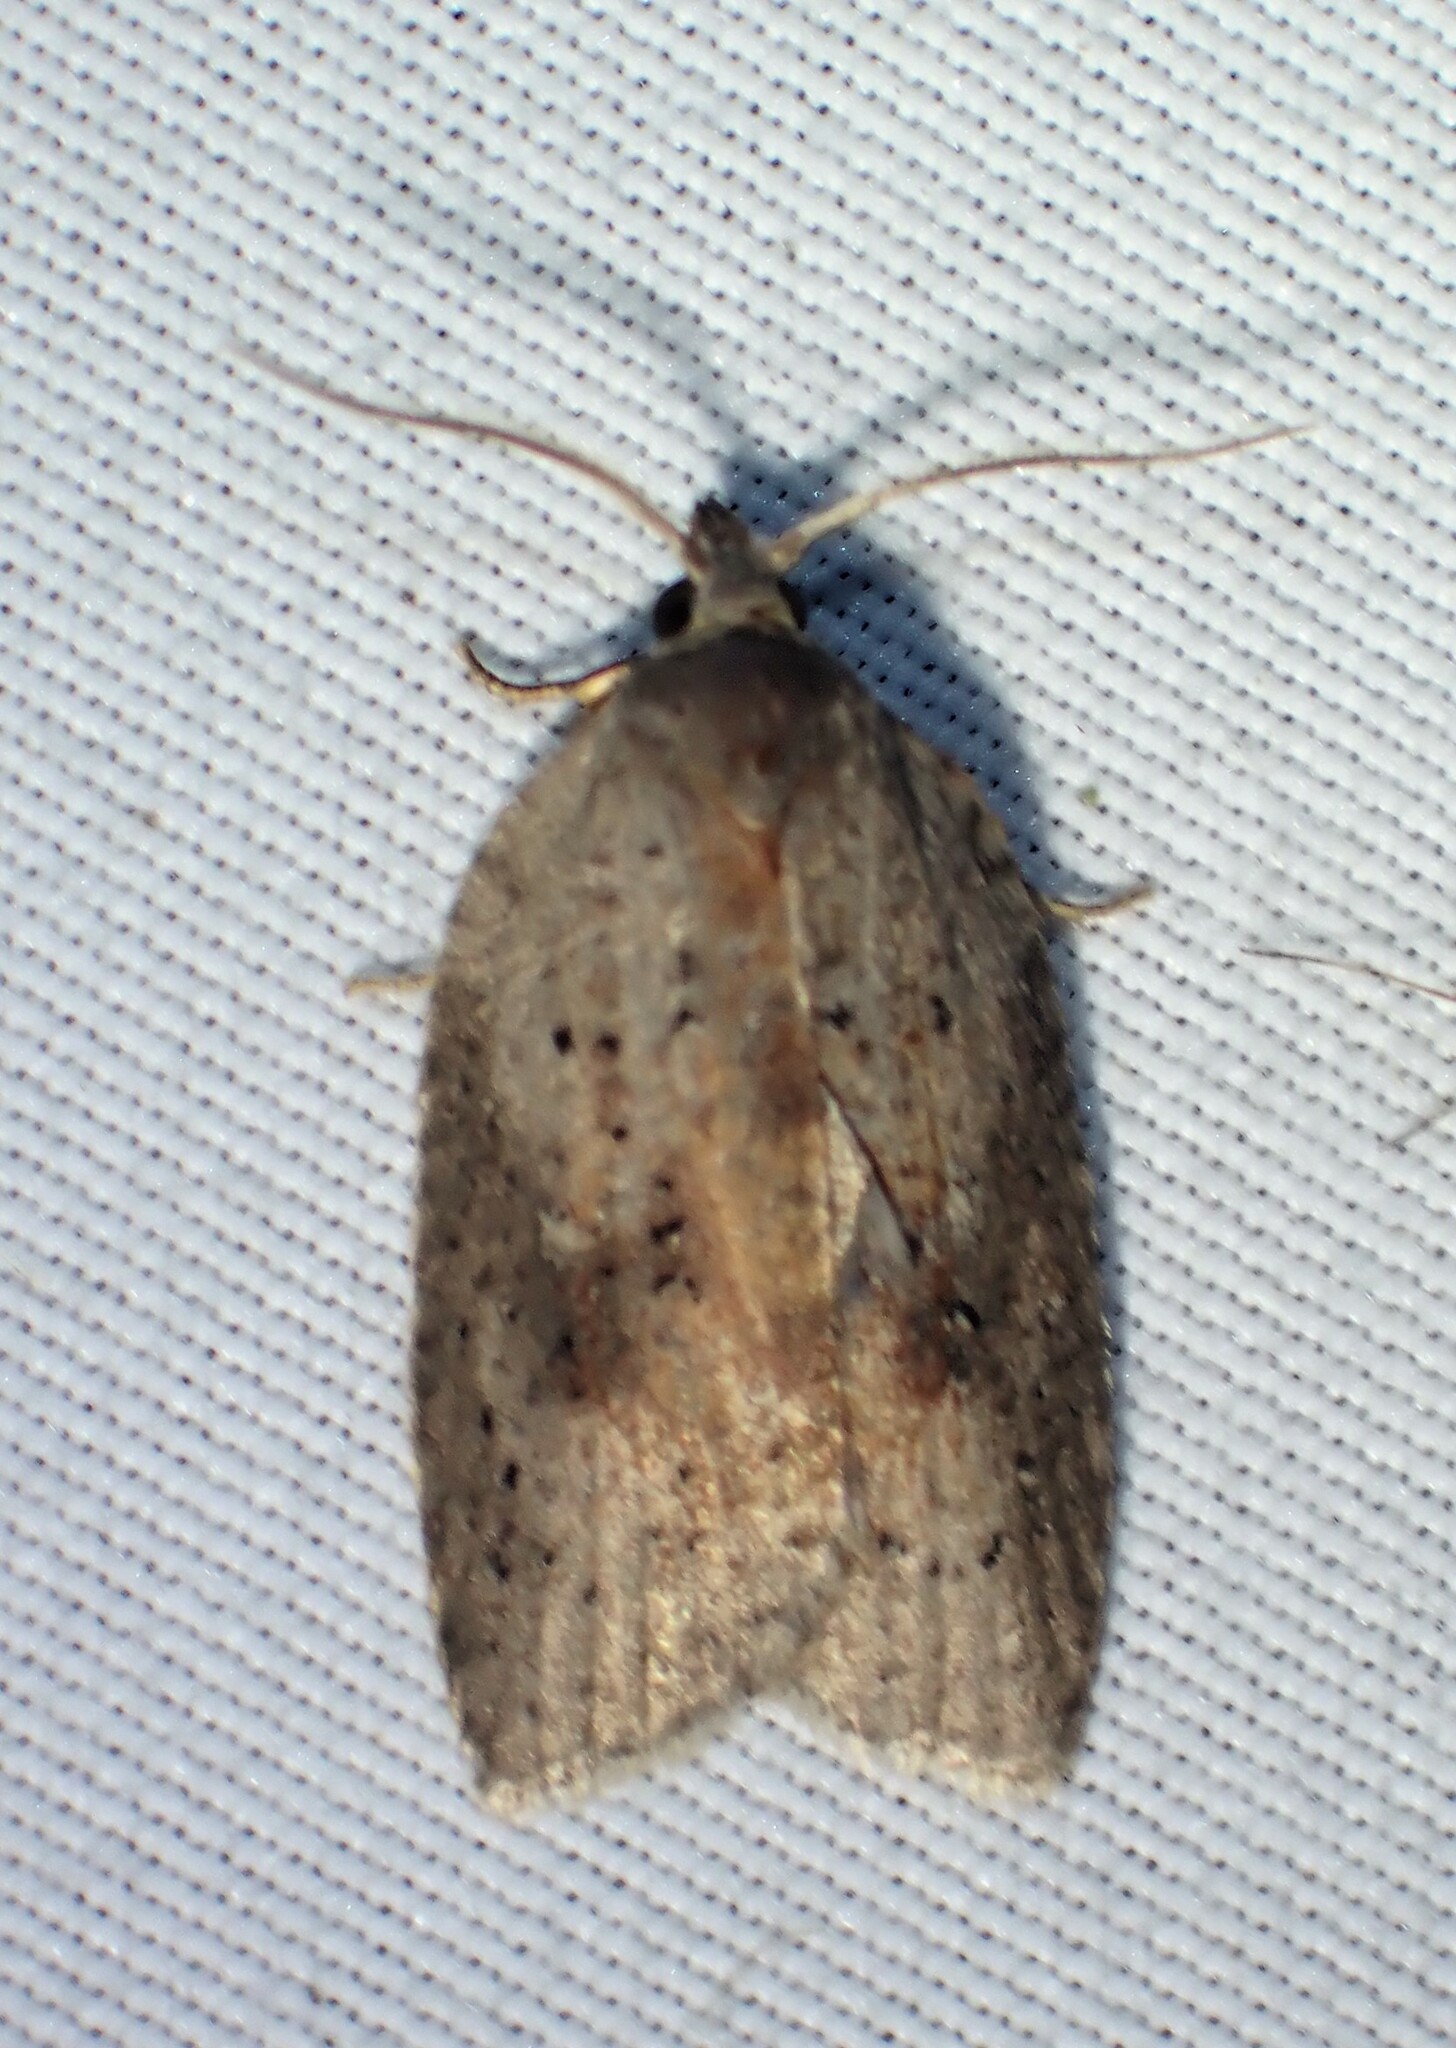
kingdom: Animalia
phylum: Arthropoda
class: Insecta
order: Lepidoptera
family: Tortricidae
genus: Amorbia
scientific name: Amorbia humerosana
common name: White-lined leafroller moth
